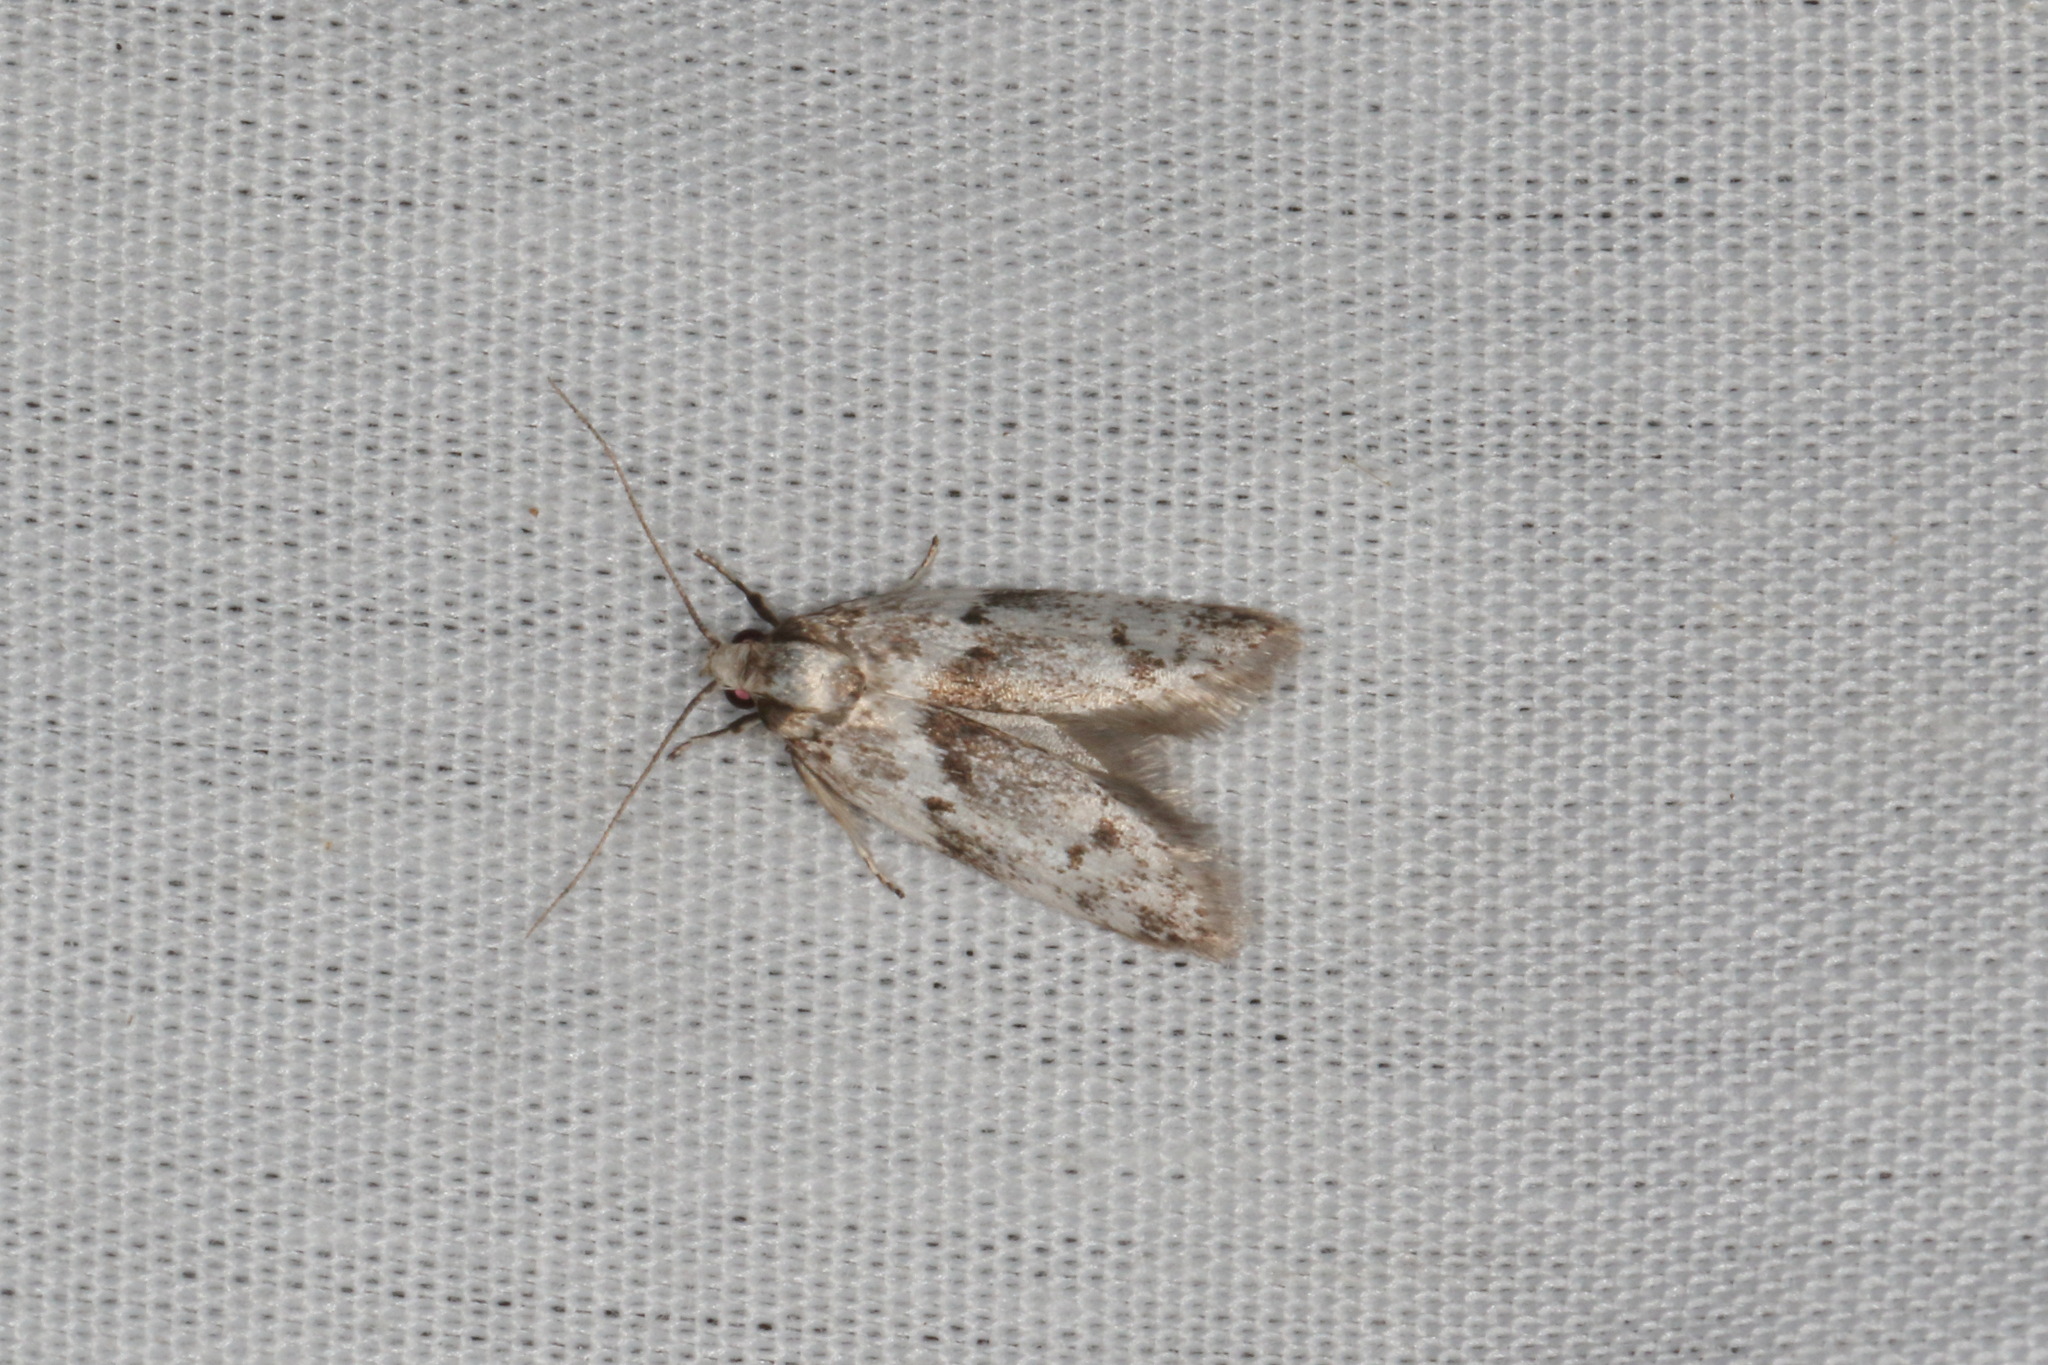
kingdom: Animalia
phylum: Arthropoda
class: Insecta
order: Lepidoptera
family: Oecophoridae
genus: Trachypepla
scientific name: Trachypepla indolescens
